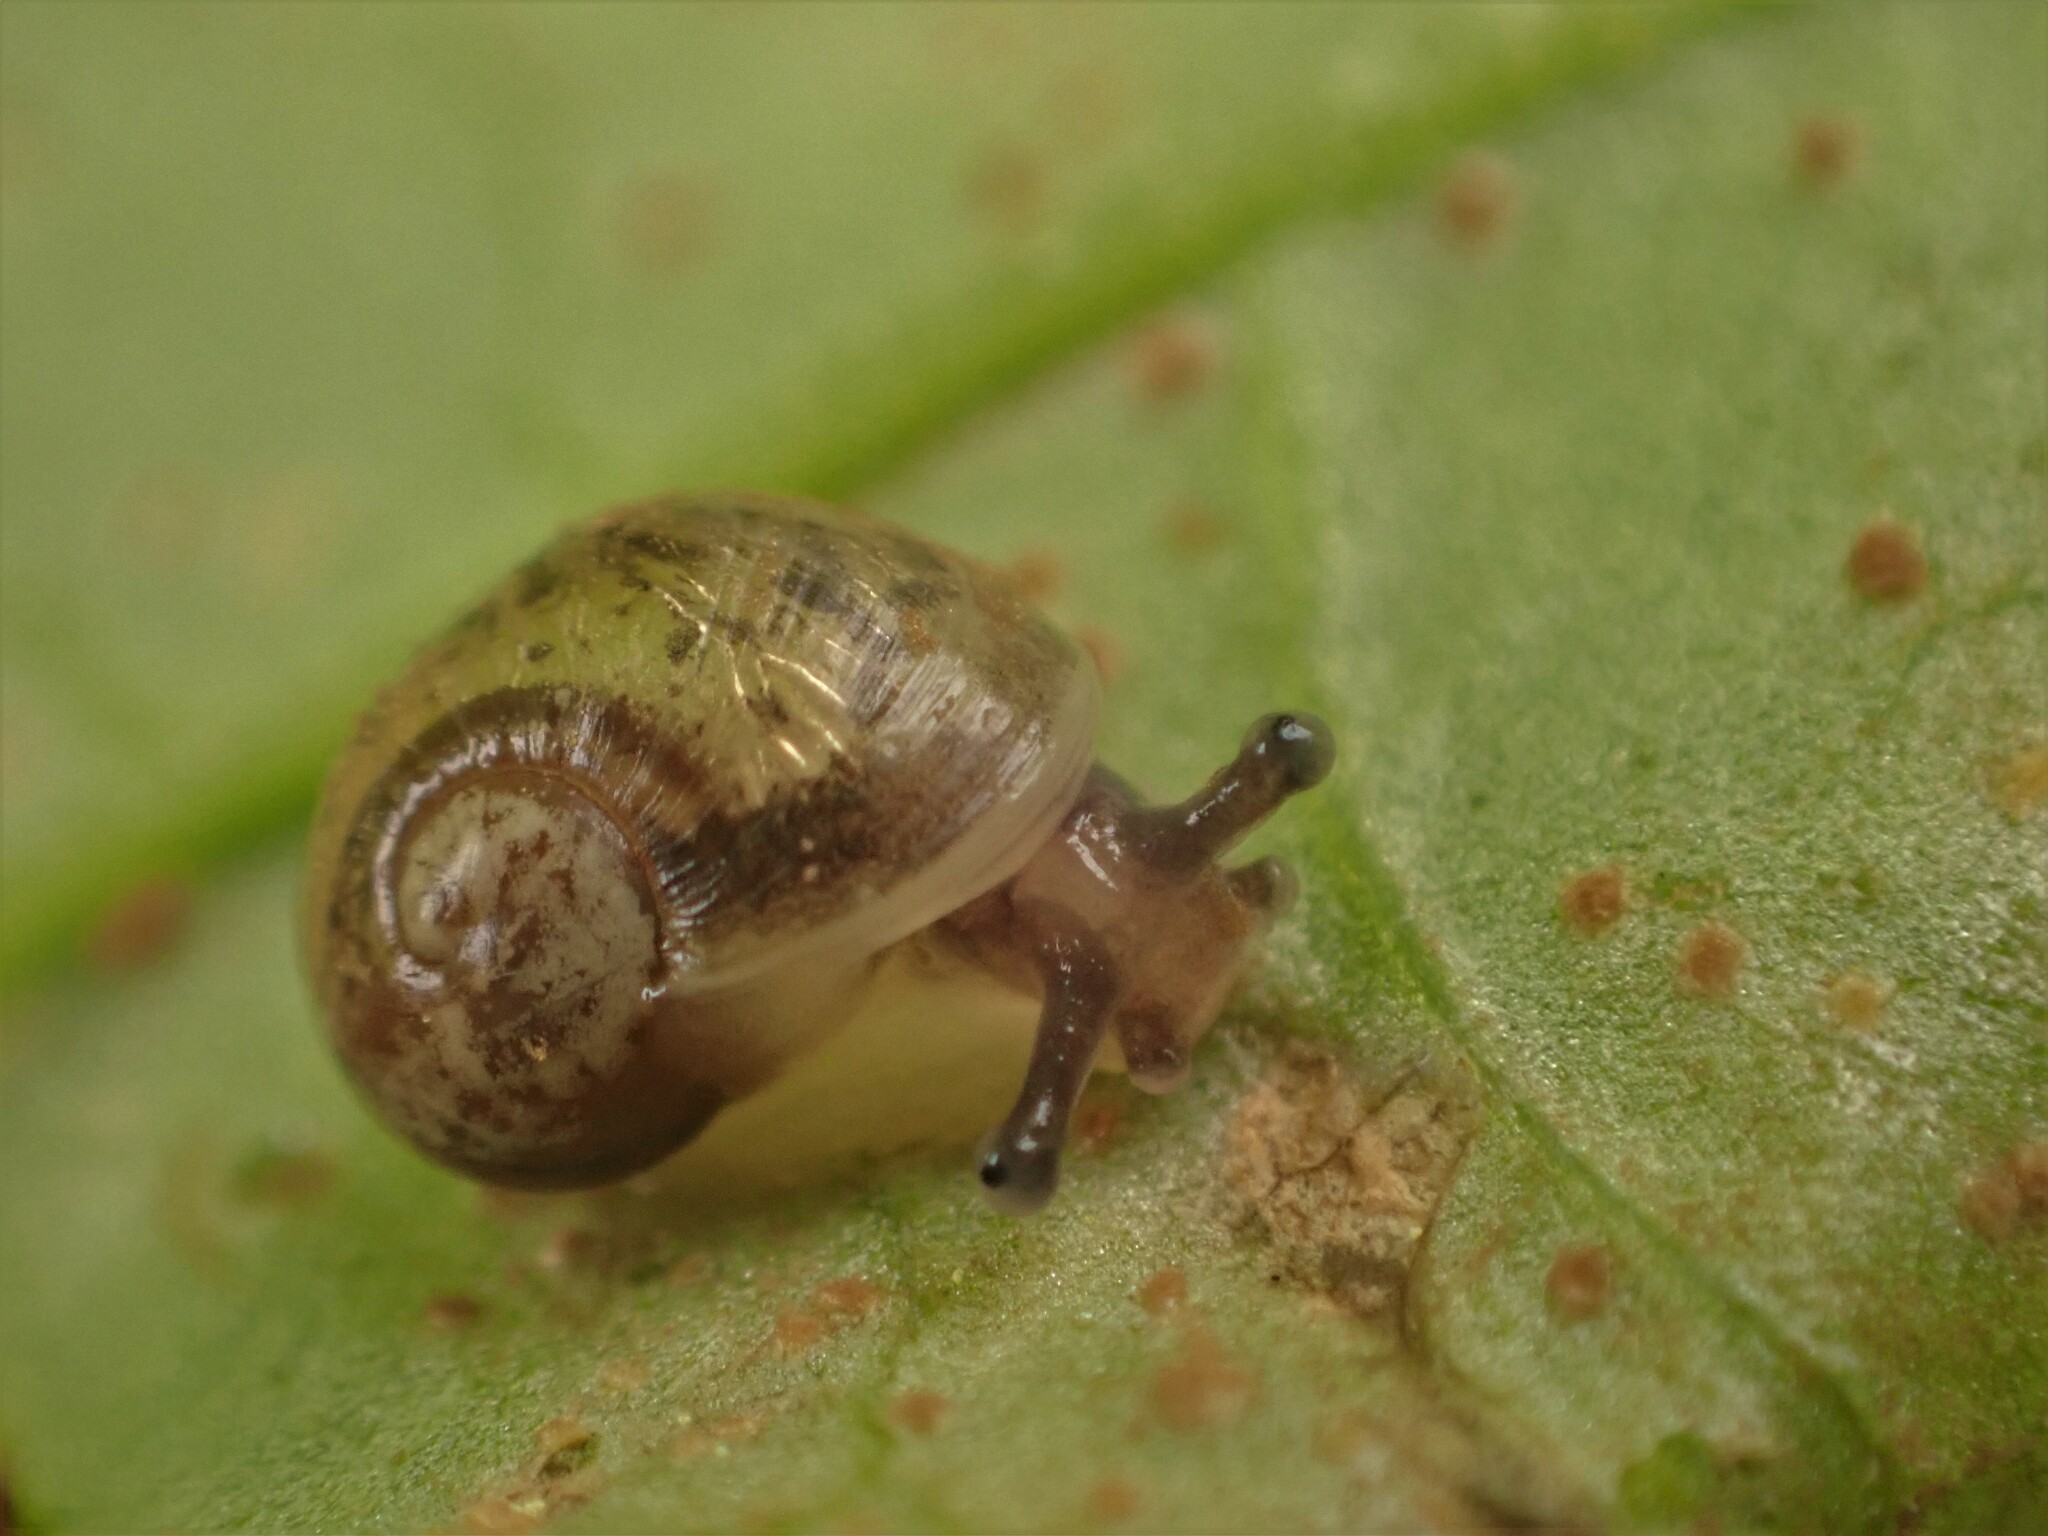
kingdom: Animalia
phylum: Mollusca
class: Gastropoda
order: Stylommatophora
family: Helicidae
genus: Cornu
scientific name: Cornu aspersum
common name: Brown garden snail
